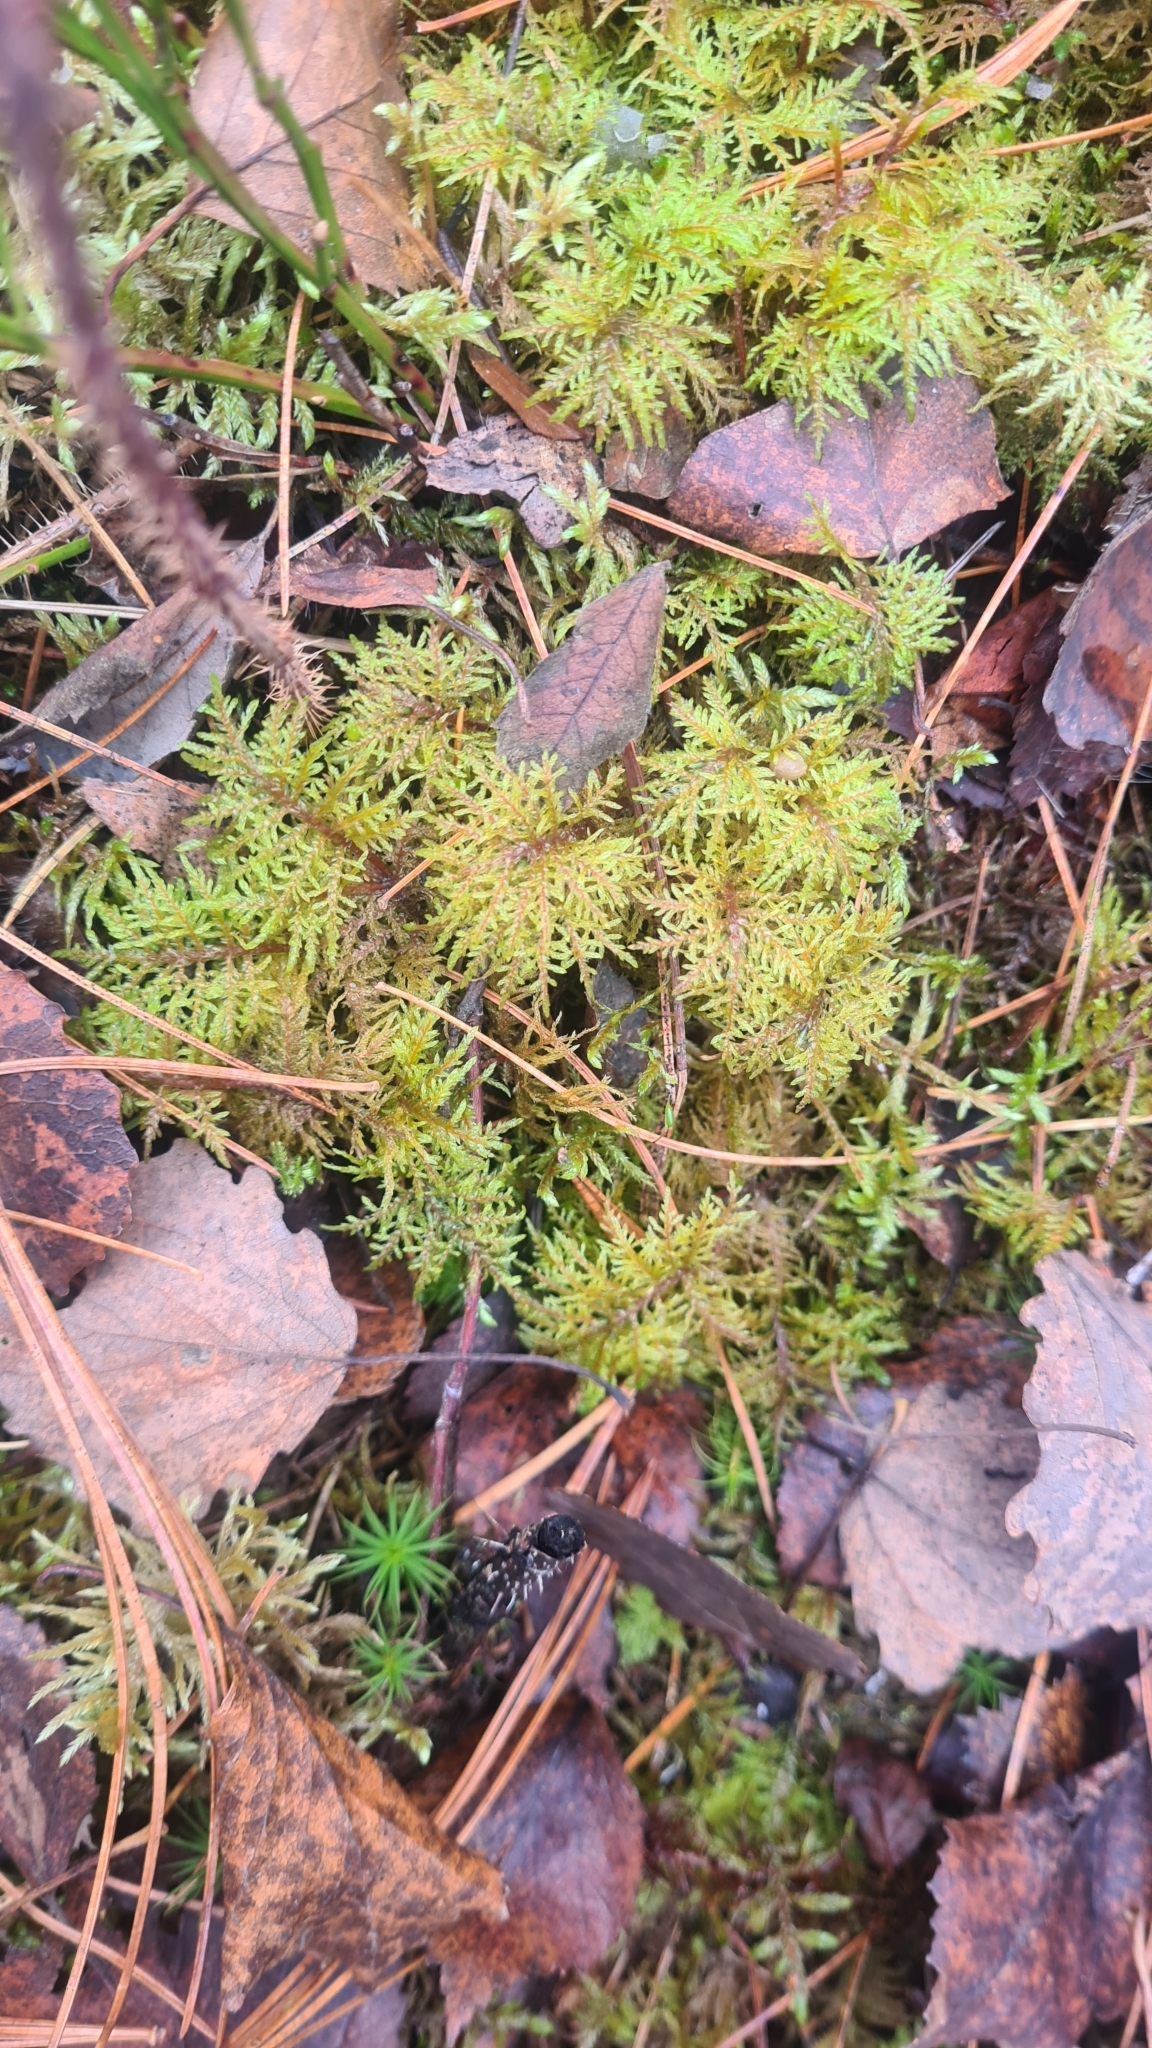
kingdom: Plantae
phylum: Bryophyta
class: Bryopsida
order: Hypnales
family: Hylocomiaceae
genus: Hylocomium
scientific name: Hylocomium splendens
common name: Stairstep moss
